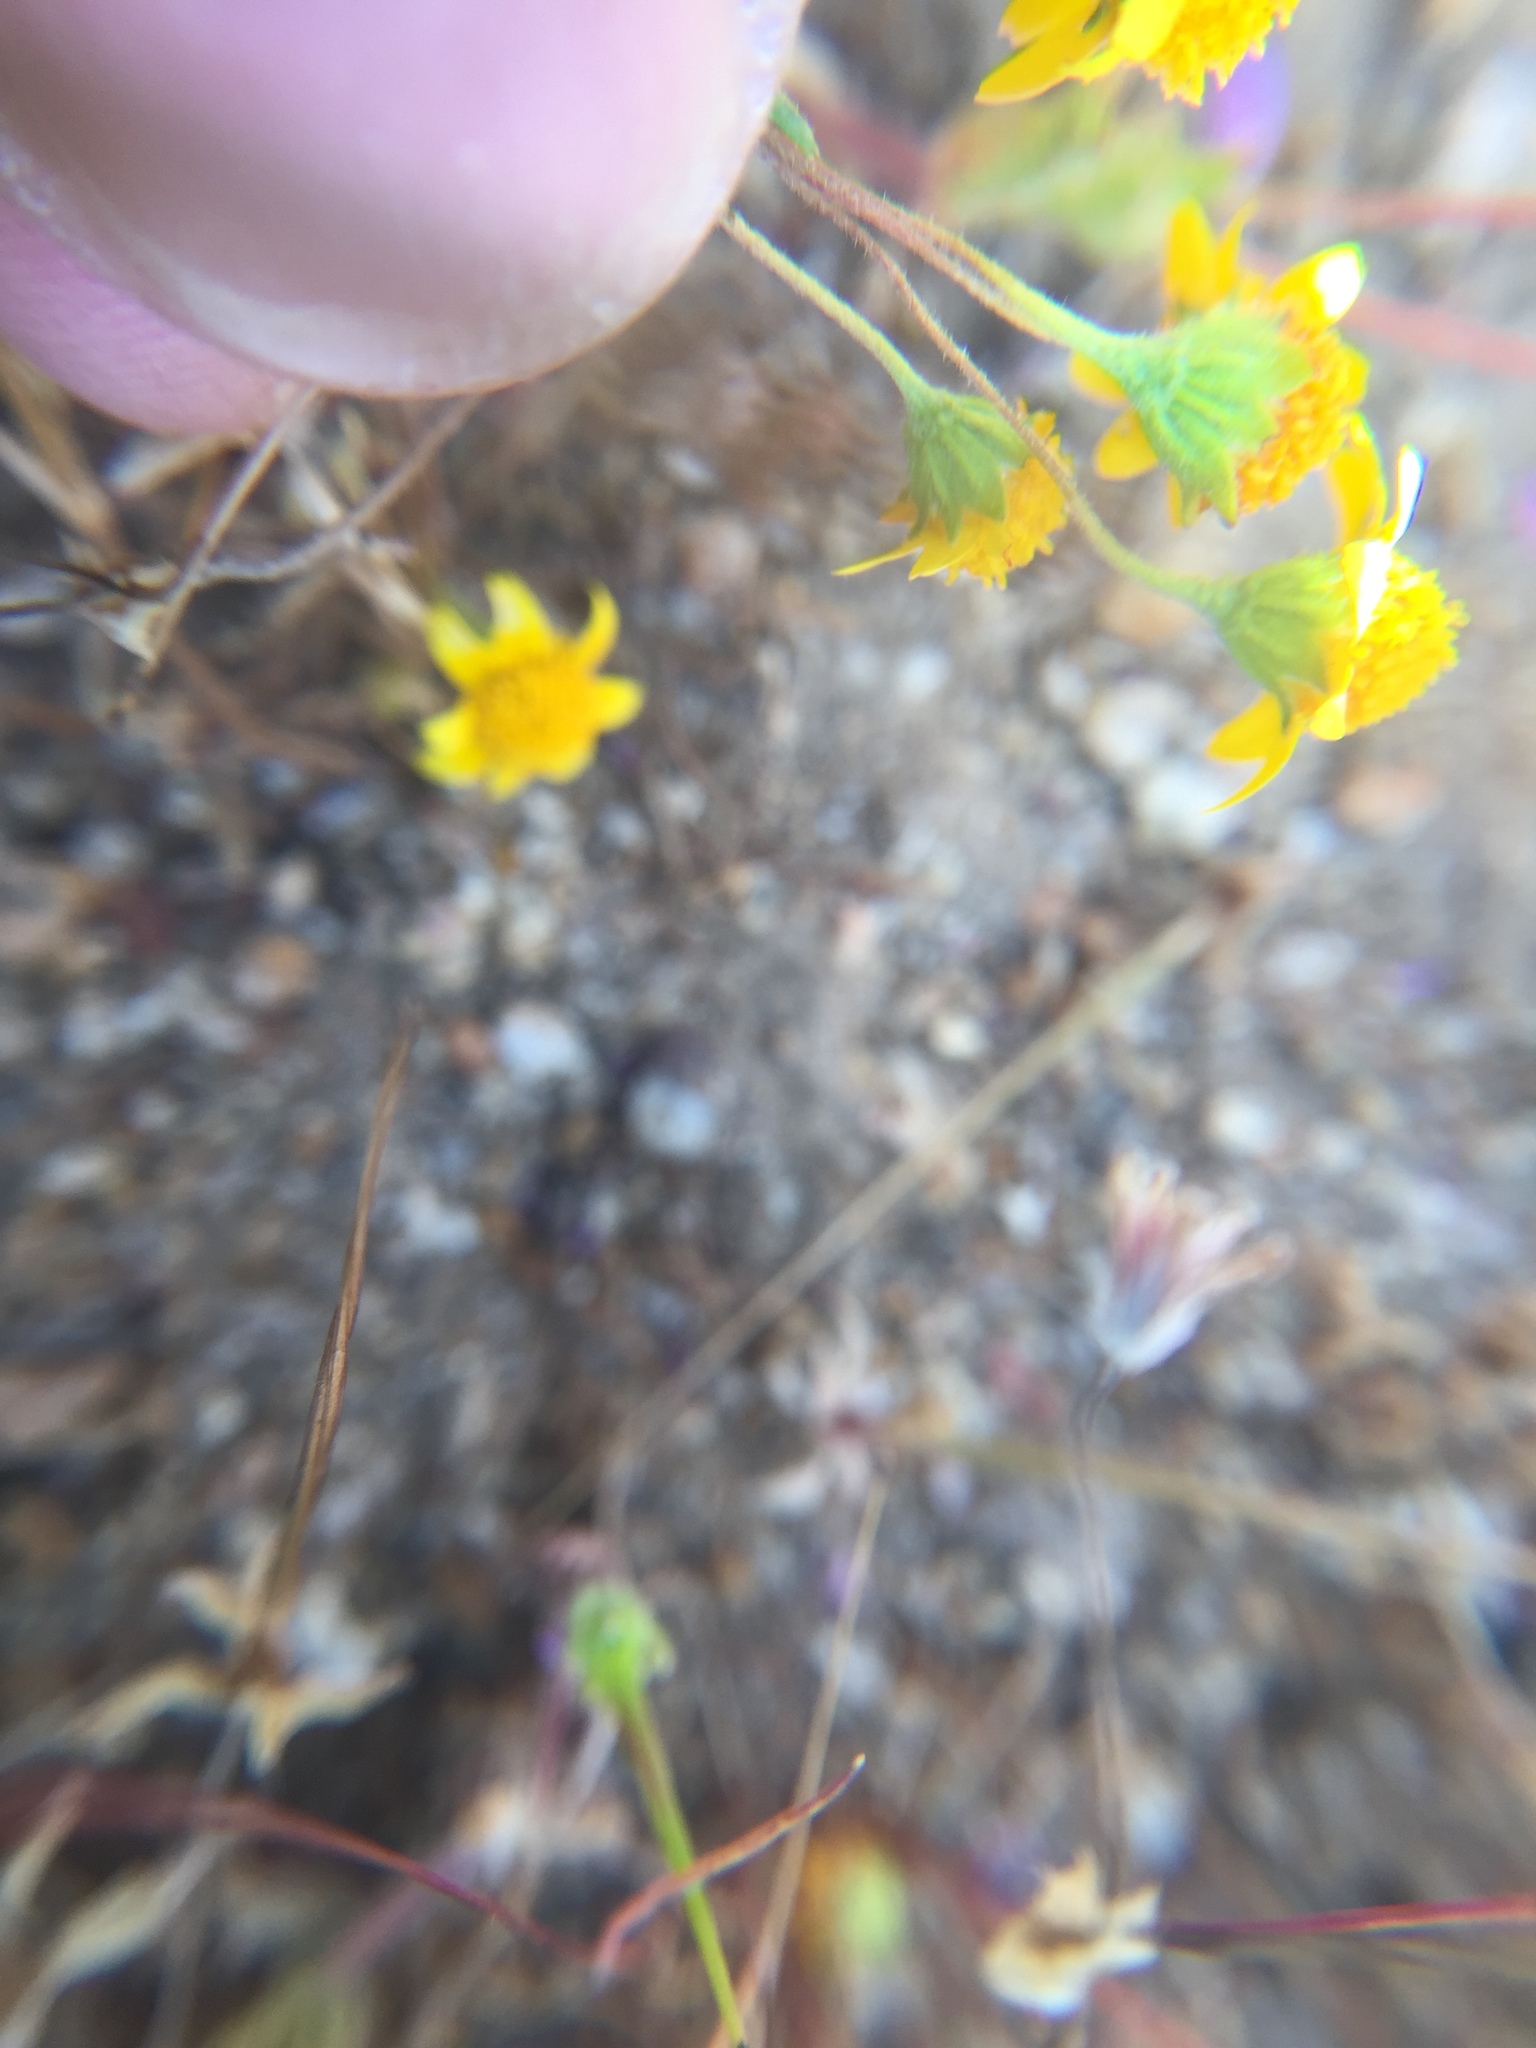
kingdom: Plantae
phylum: Tracheophyta
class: Magnoliopsida
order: Asterales
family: Asteraceae
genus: Lasthenia
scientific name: Lasthenia gracilis
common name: Common goldfields
